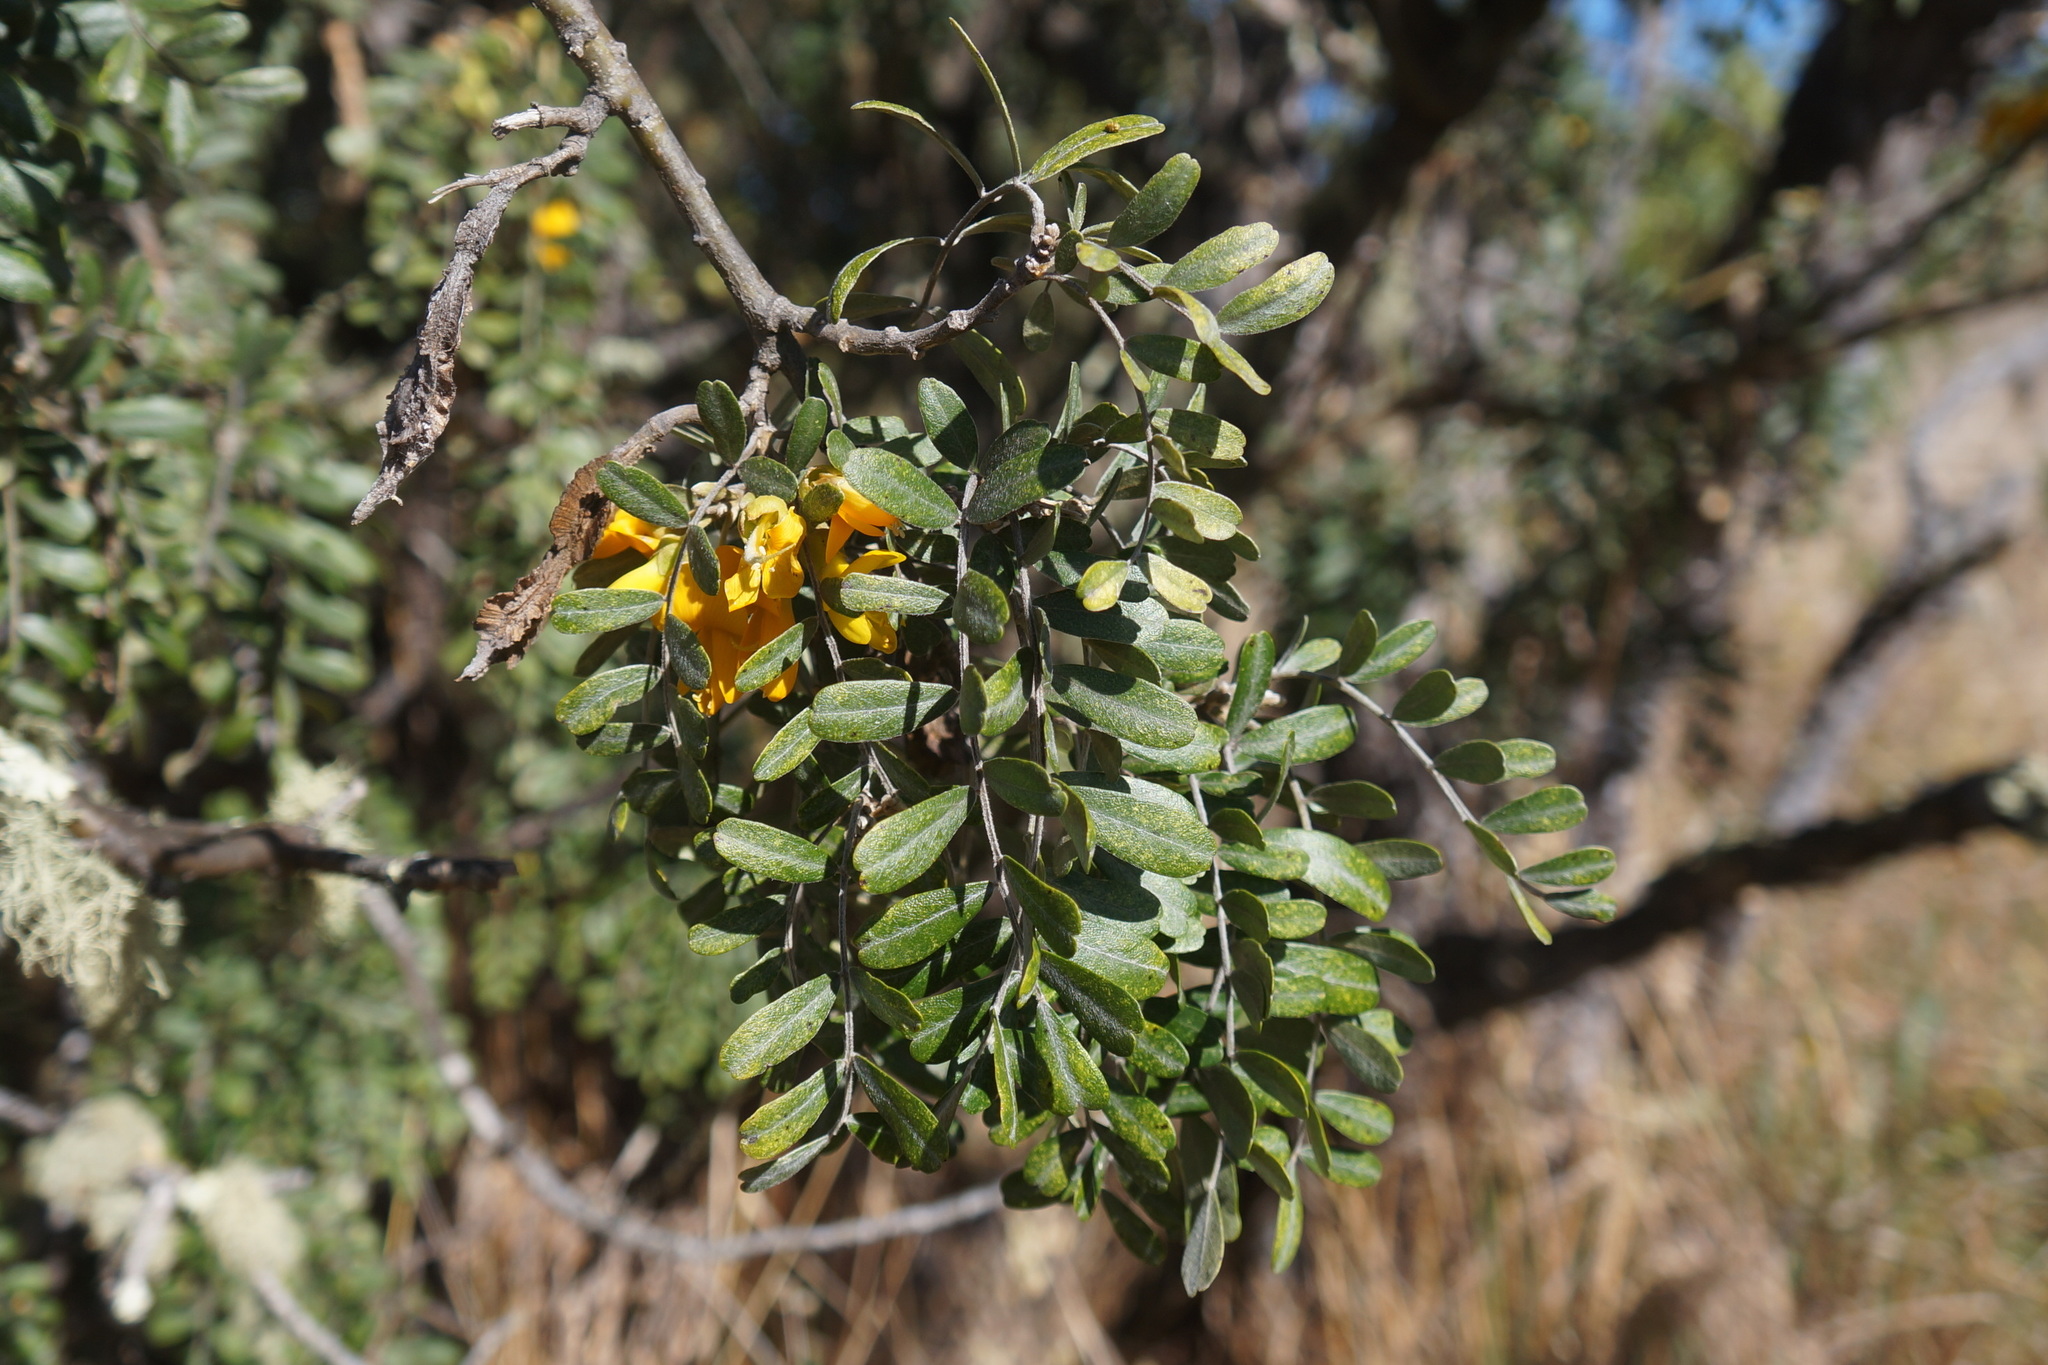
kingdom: Plantae
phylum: Tracheophyta
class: Magnoliopsida
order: Fabales
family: Fabaceae
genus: Sophora
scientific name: Sophora chrysophylla
